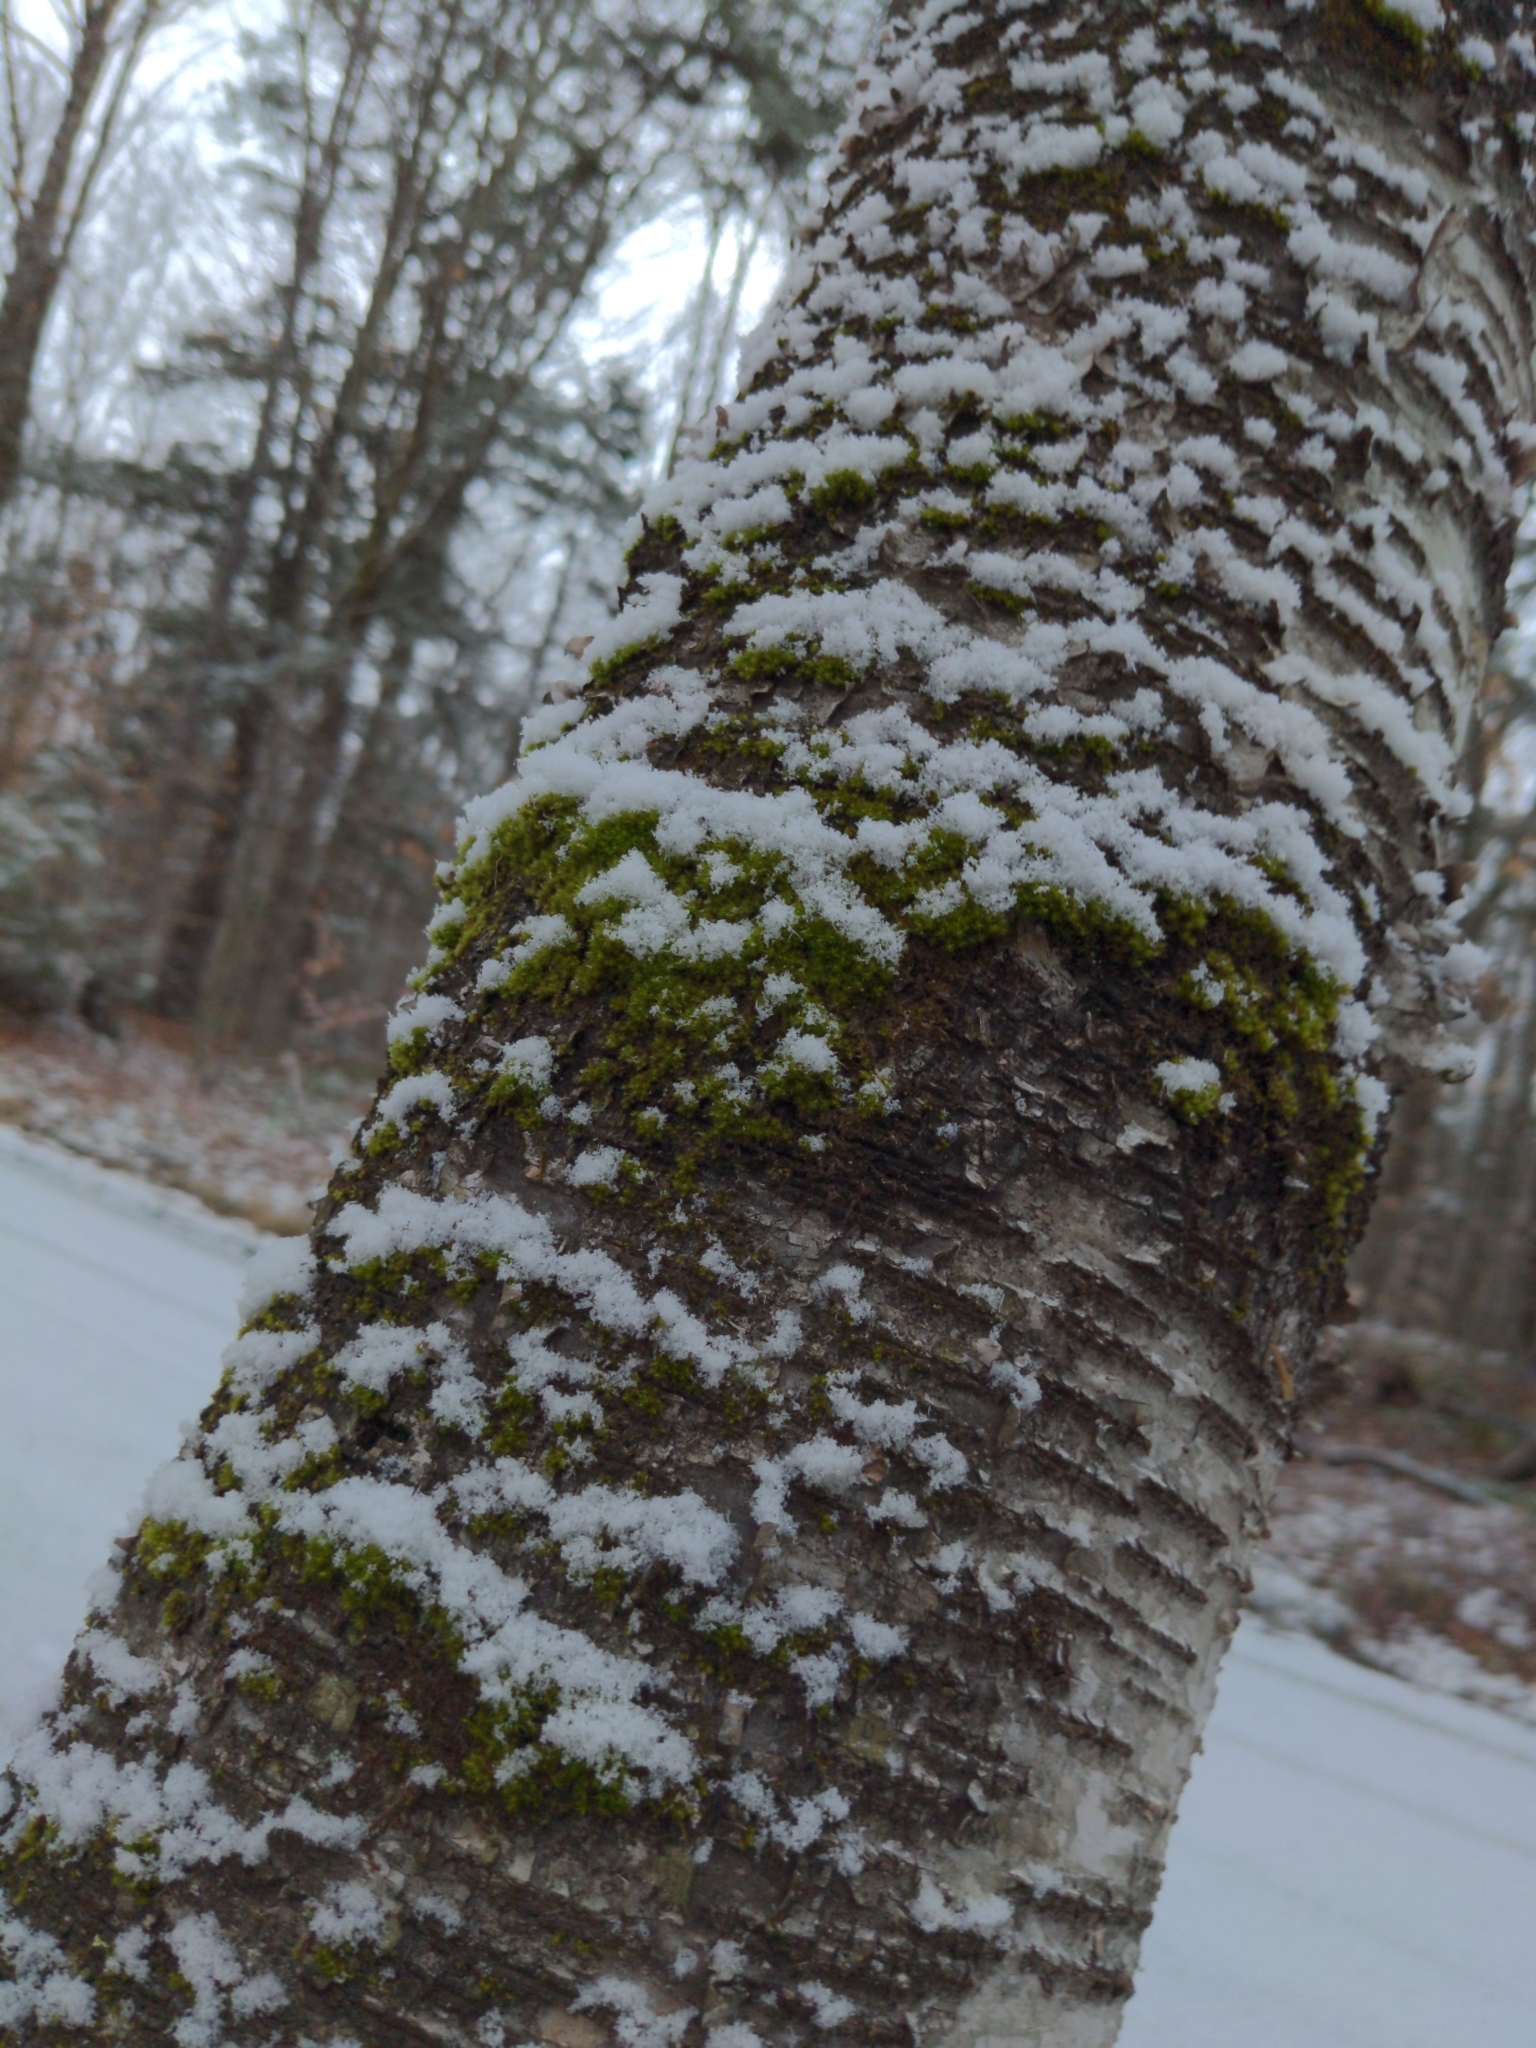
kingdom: Plantae
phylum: Bryophyta
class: Bryopsida
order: Orthotrichales
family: Orthotrichaceae
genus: Ulota
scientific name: Ulota crispa
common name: Crisped pincushion moss
